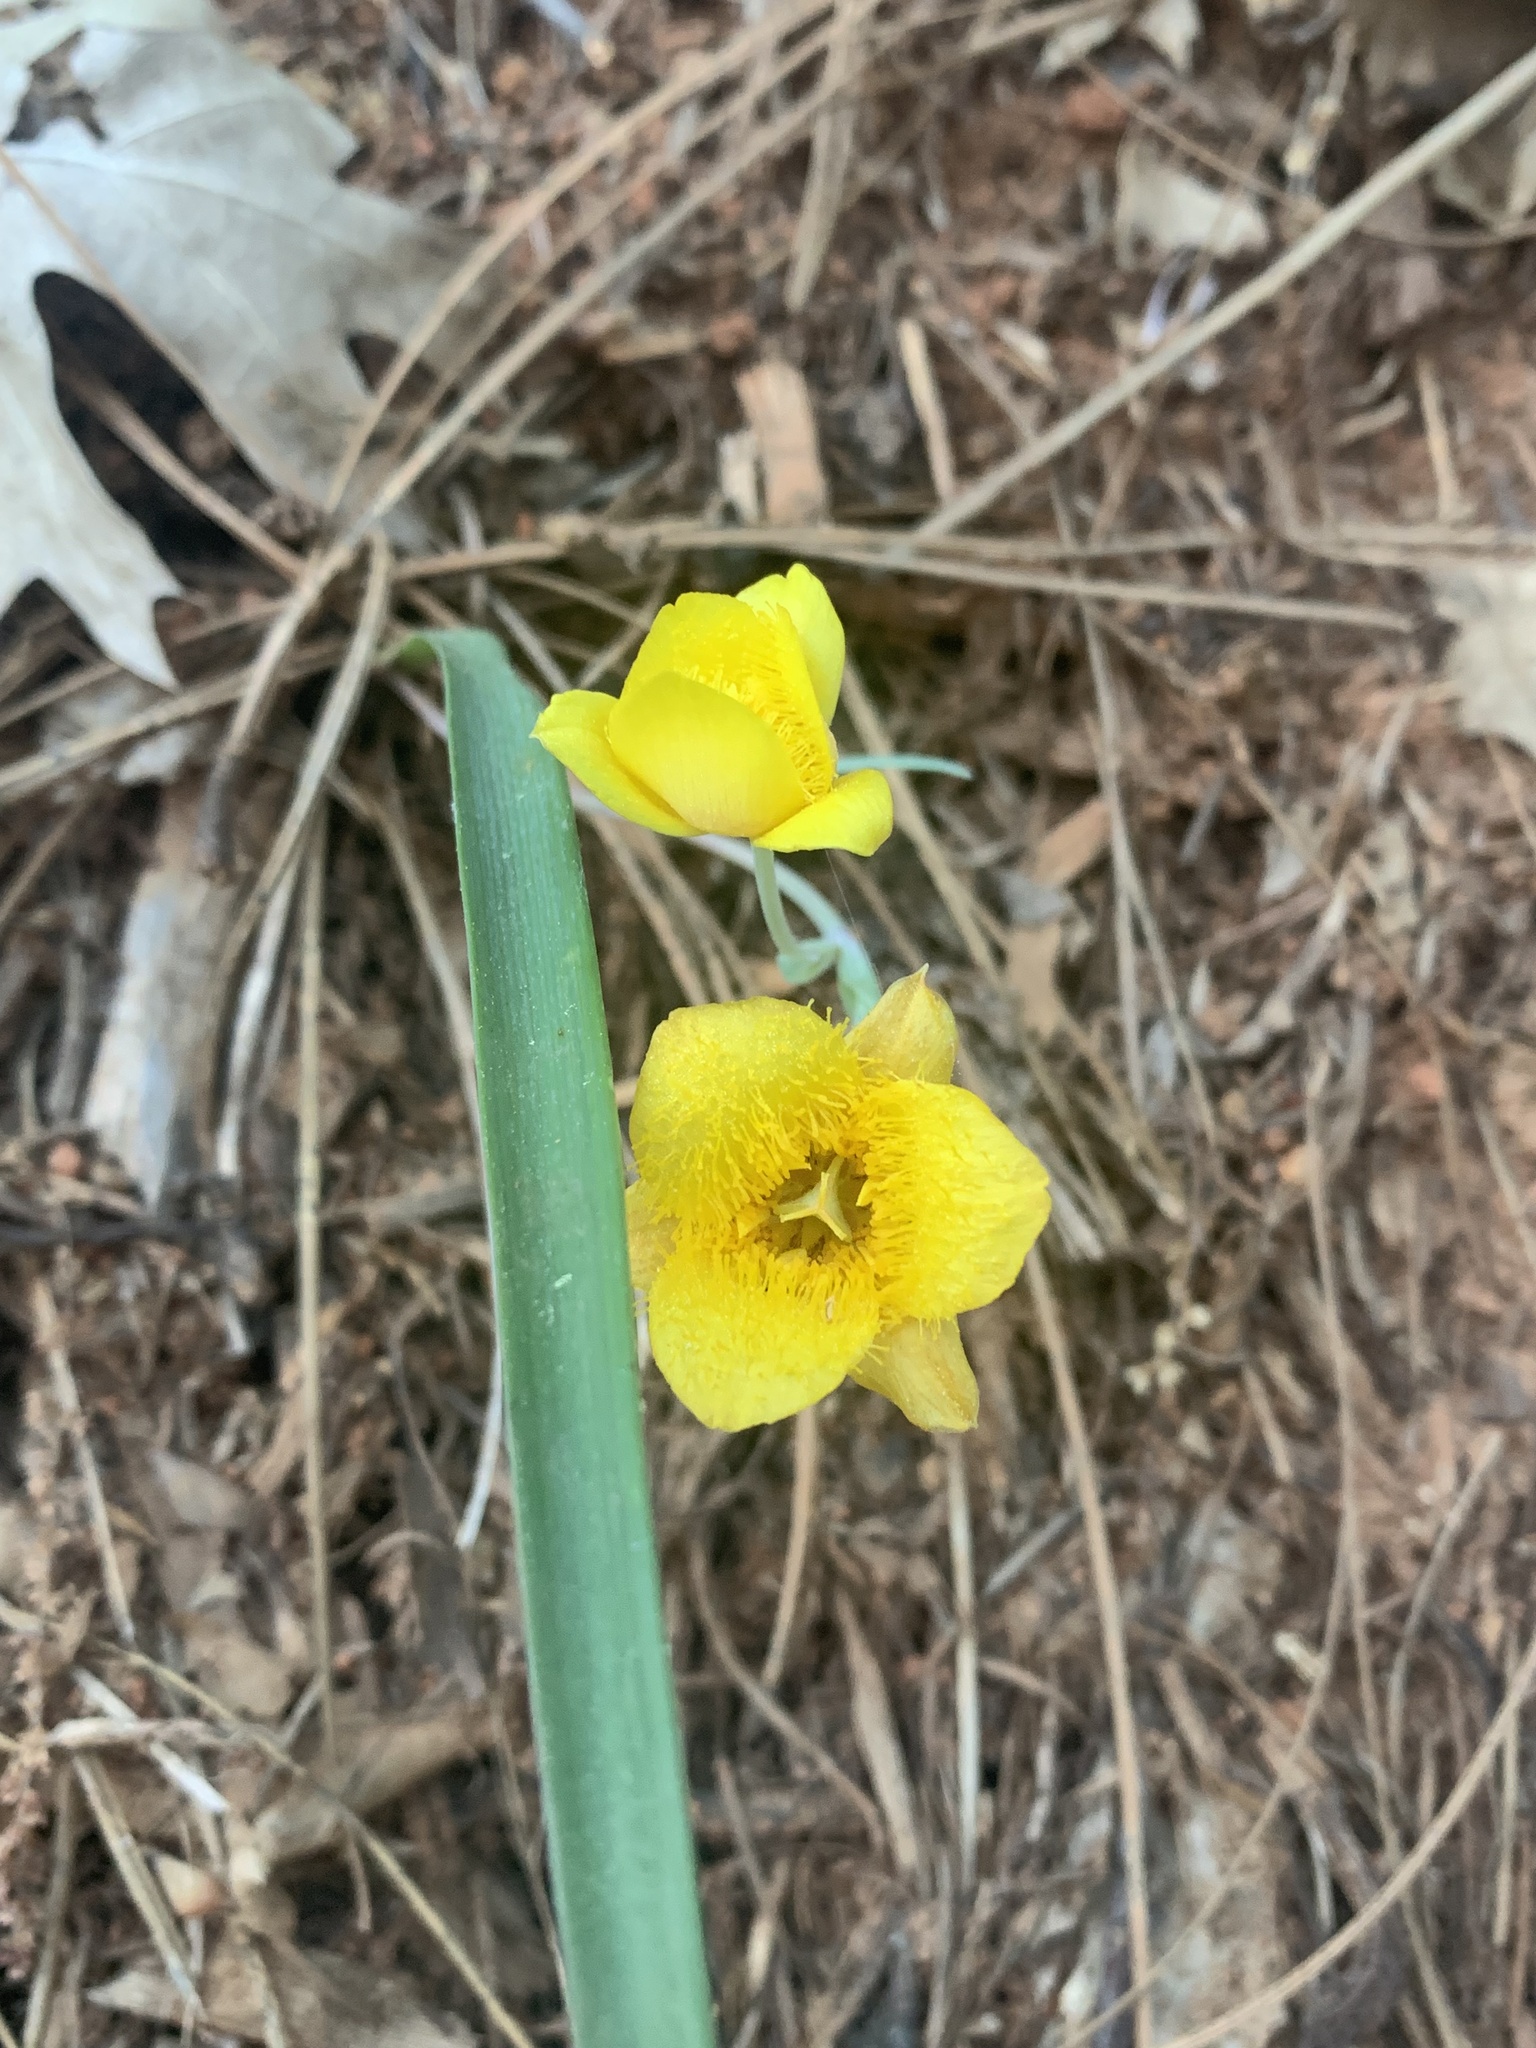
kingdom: Plantae
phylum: Tracheophyta
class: Liliopsida
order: Liliales
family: Liliaceae
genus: Calochortus
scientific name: Calochortus monophyllus
